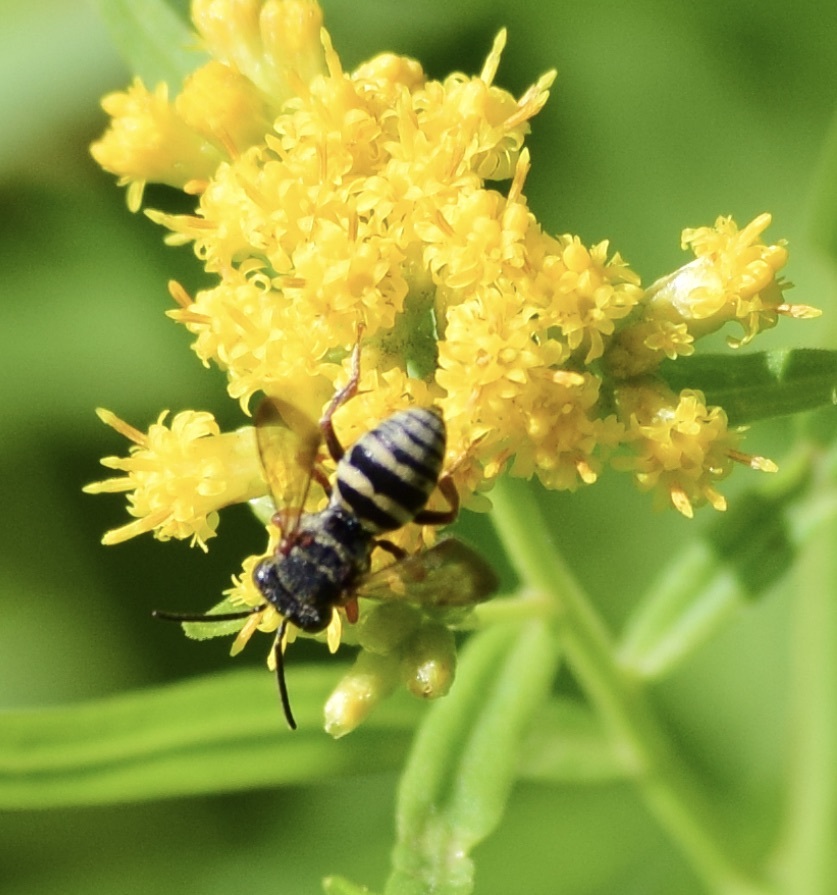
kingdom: Animalia
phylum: Arthropoda
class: Insecta
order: Hymenoptera
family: Apidae
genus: Epeolus
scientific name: Epeolus scutellaris
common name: Notch-backed cellophane-cuckoo bee
